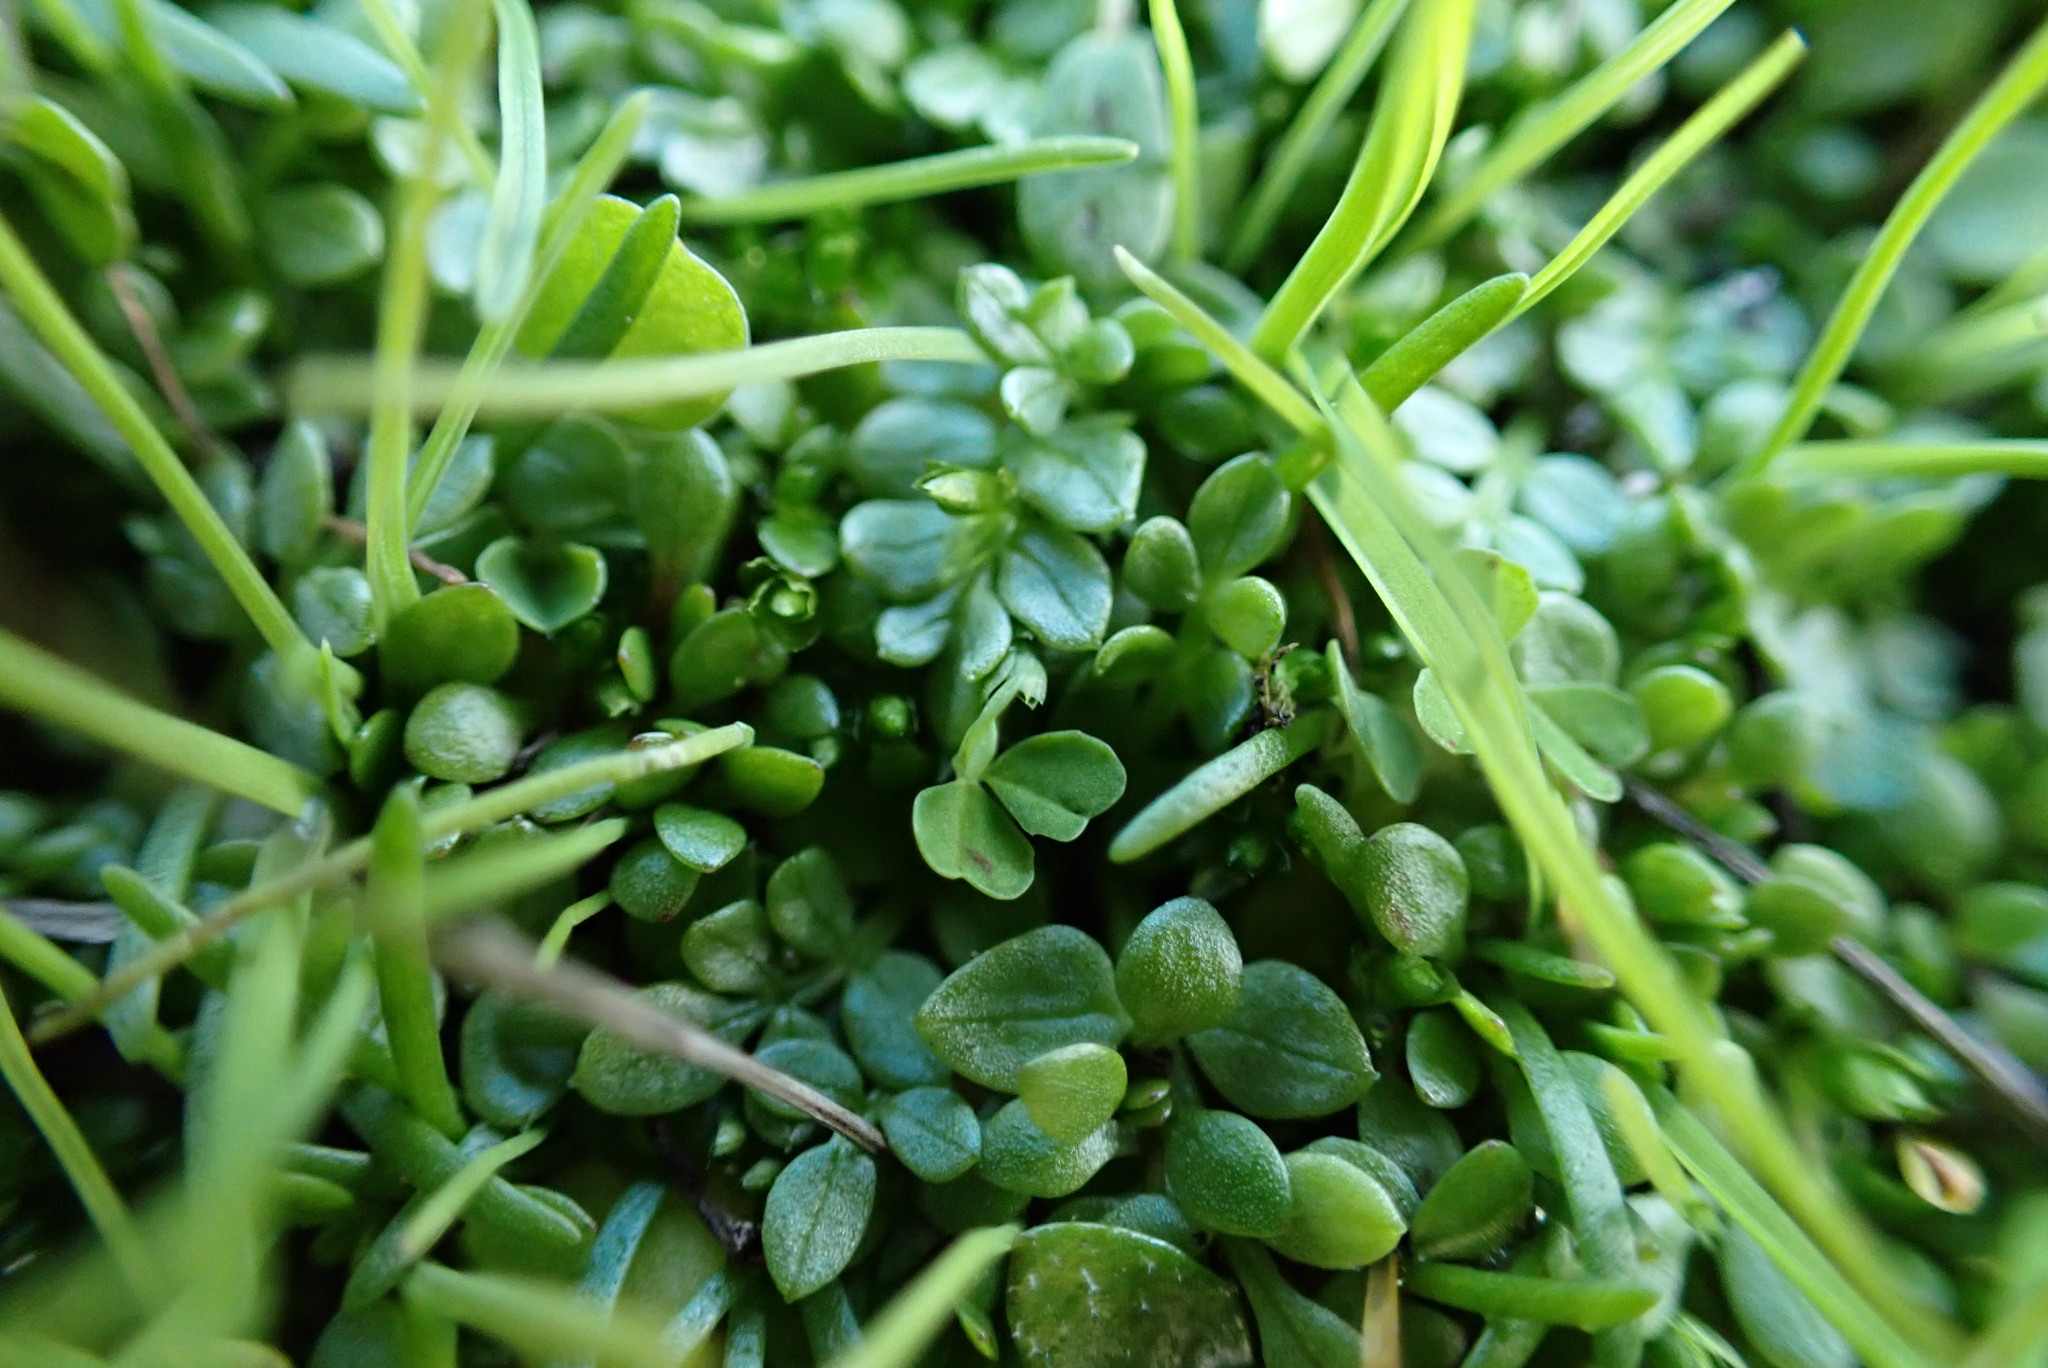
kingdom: Plantae
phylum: Tracheophyta
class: Magnoliopsida
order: Brassicales
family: Limnanthaceae
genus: Limnanthes
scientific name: Limnanthes macounii
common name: Macoun's meadowfoam
